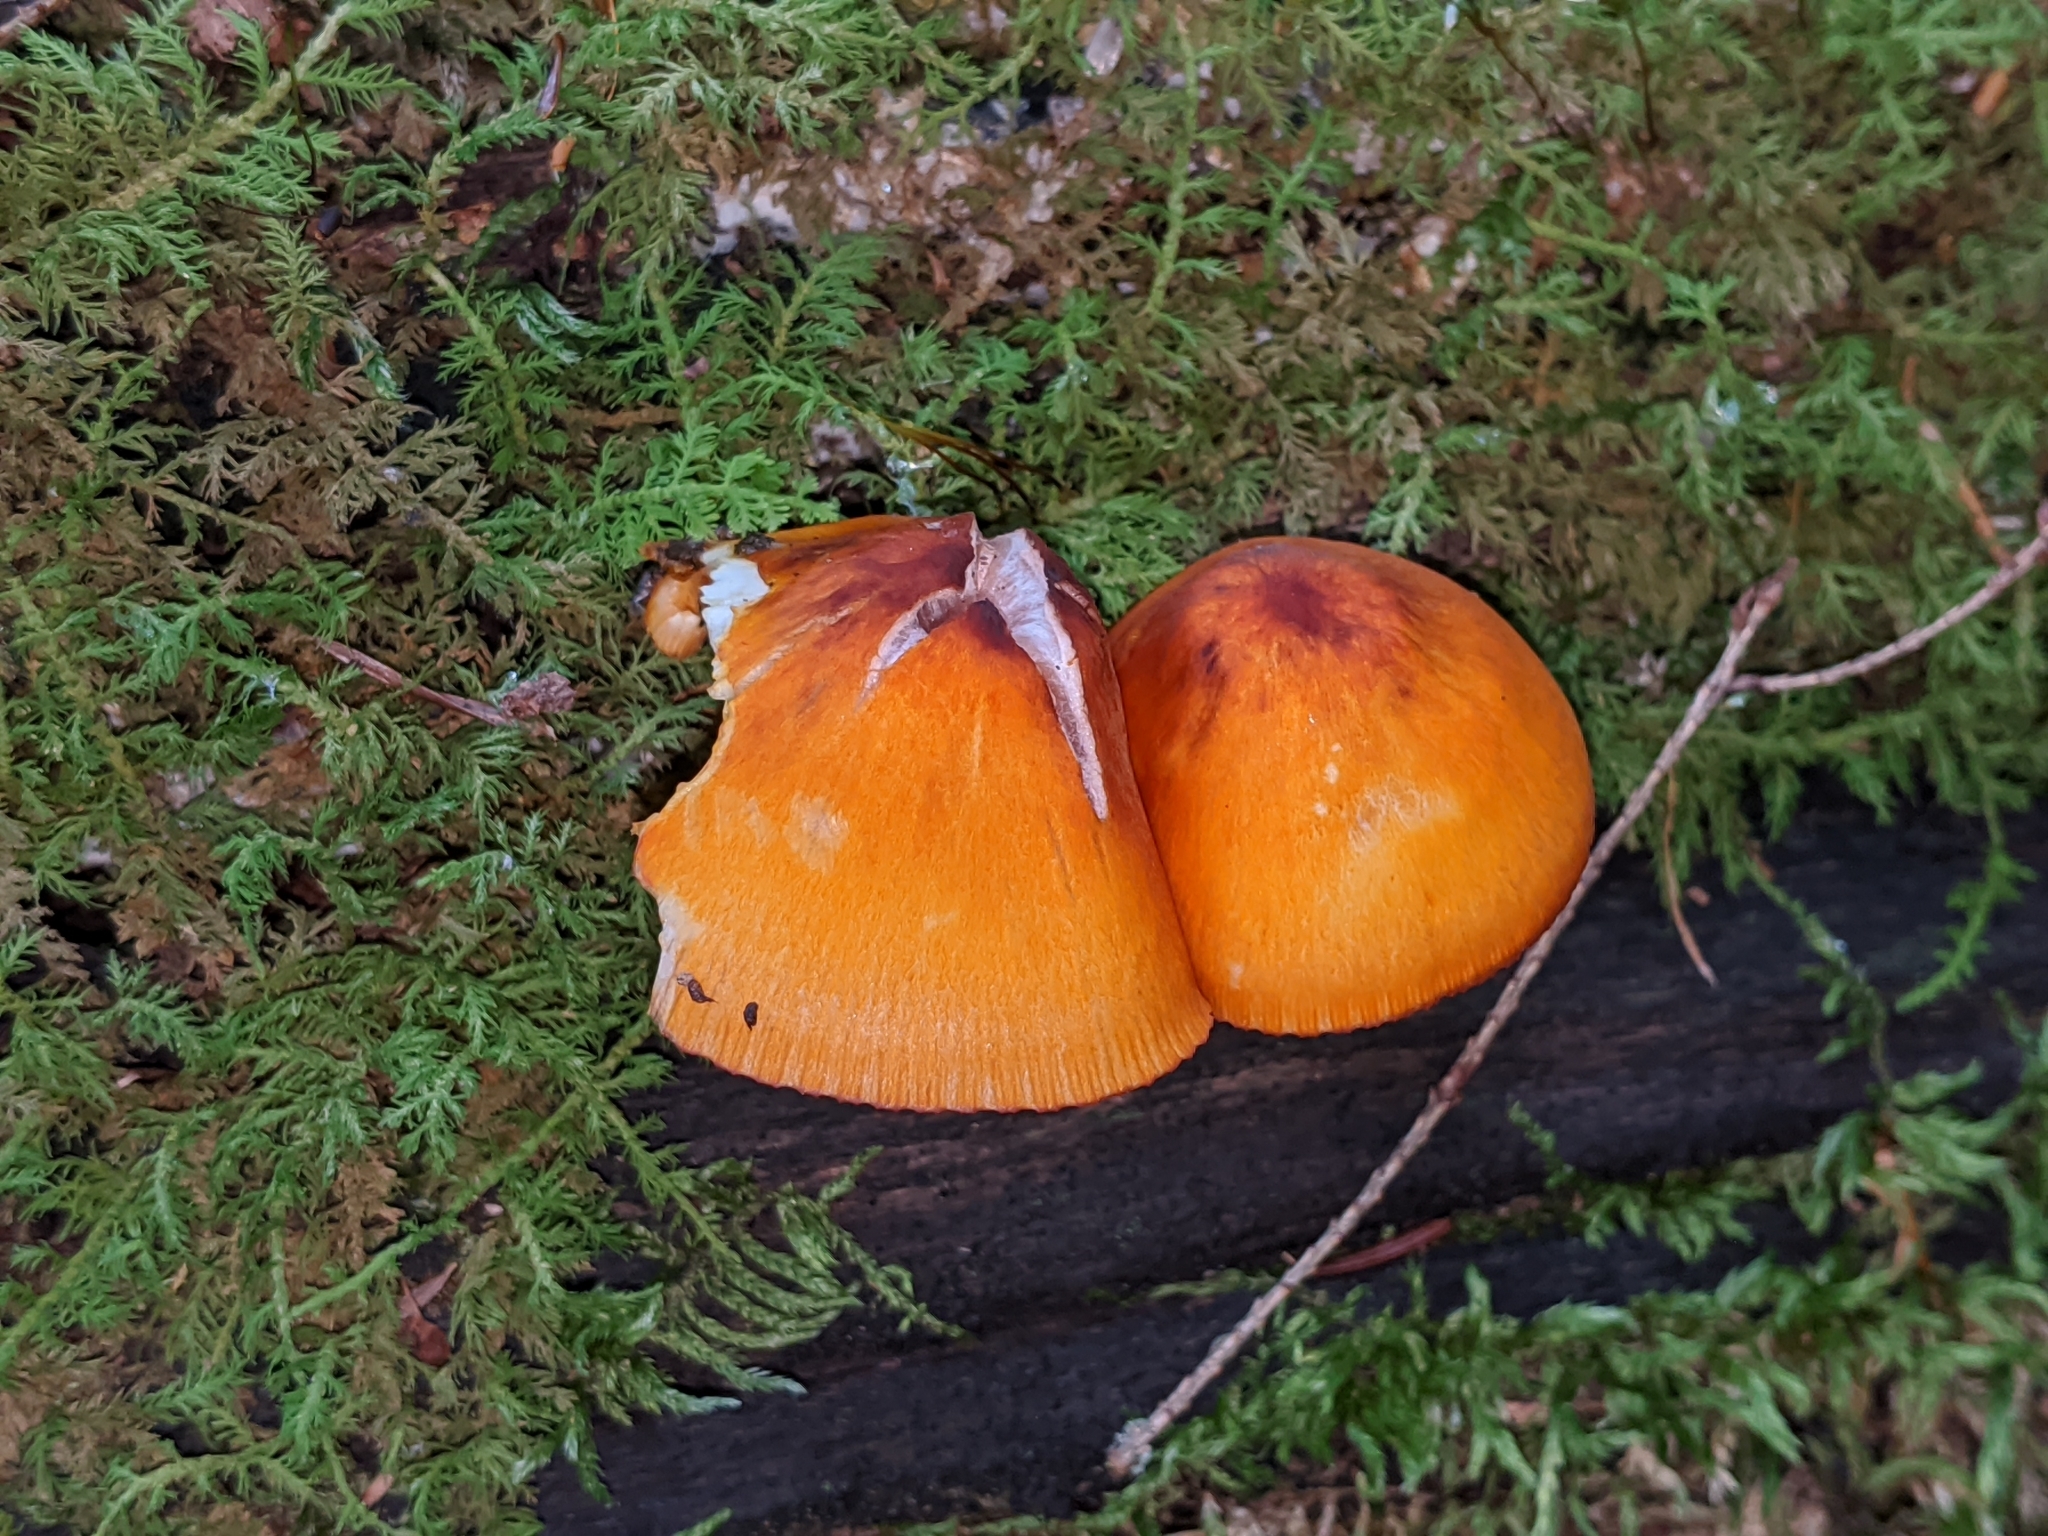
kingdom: Fungi
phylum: Basidiomycota
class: Agaricomycetes
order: Agaricales
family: Mycenaceae
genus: Mycena
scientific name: Mycena leaiana
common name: Orange mycena
